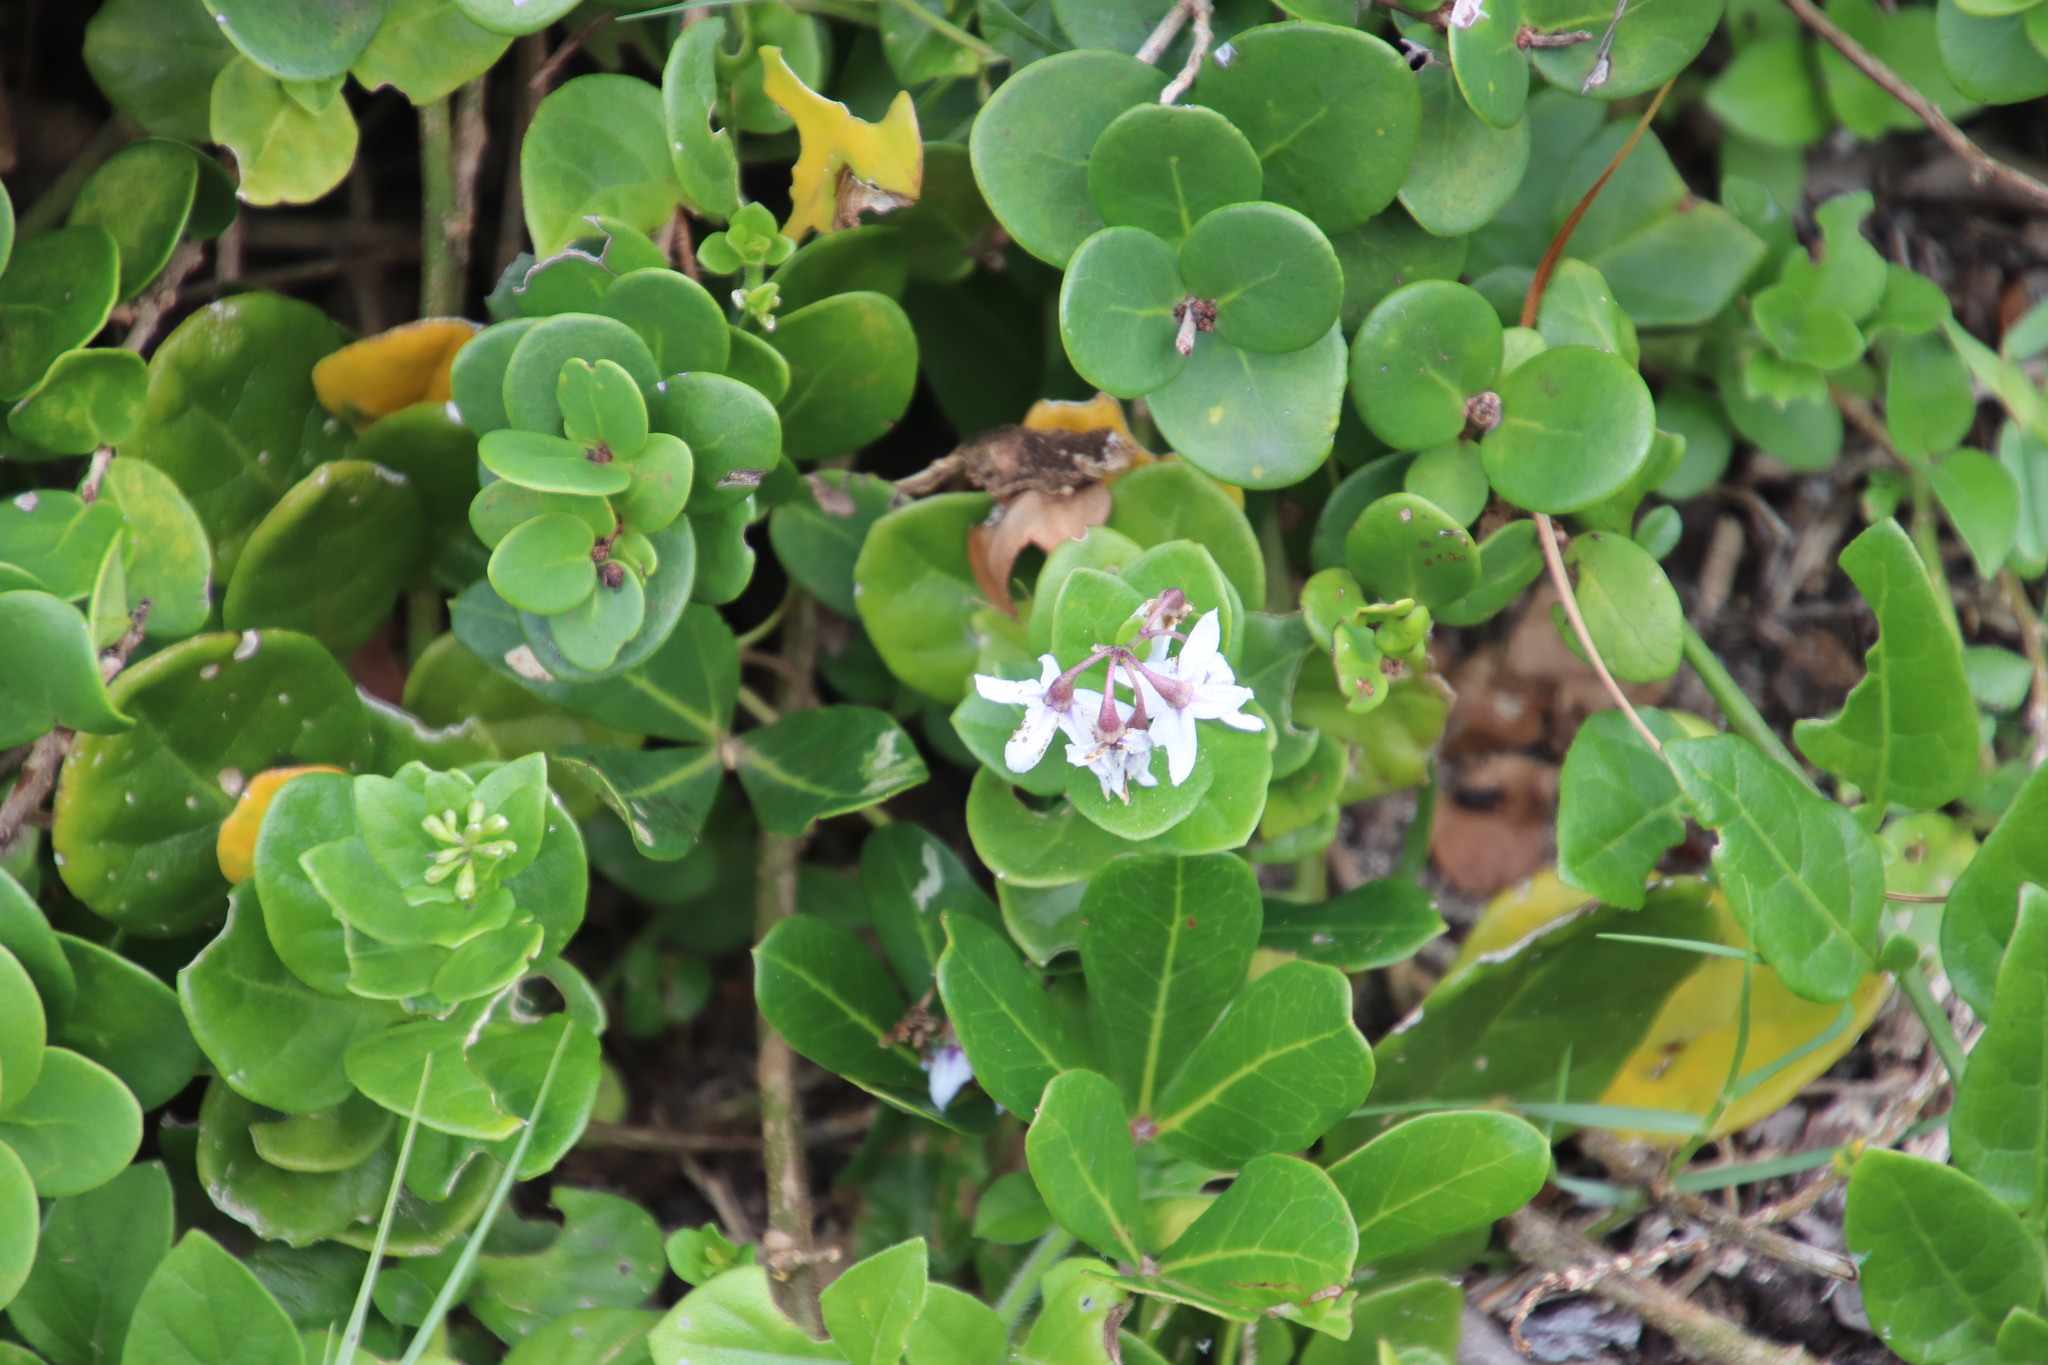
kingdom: Plantae
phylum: Tracheophyta
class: Magnoliopsida
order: Solanales
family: Solanaceae
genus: Solanum
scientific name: Solanum africanum
